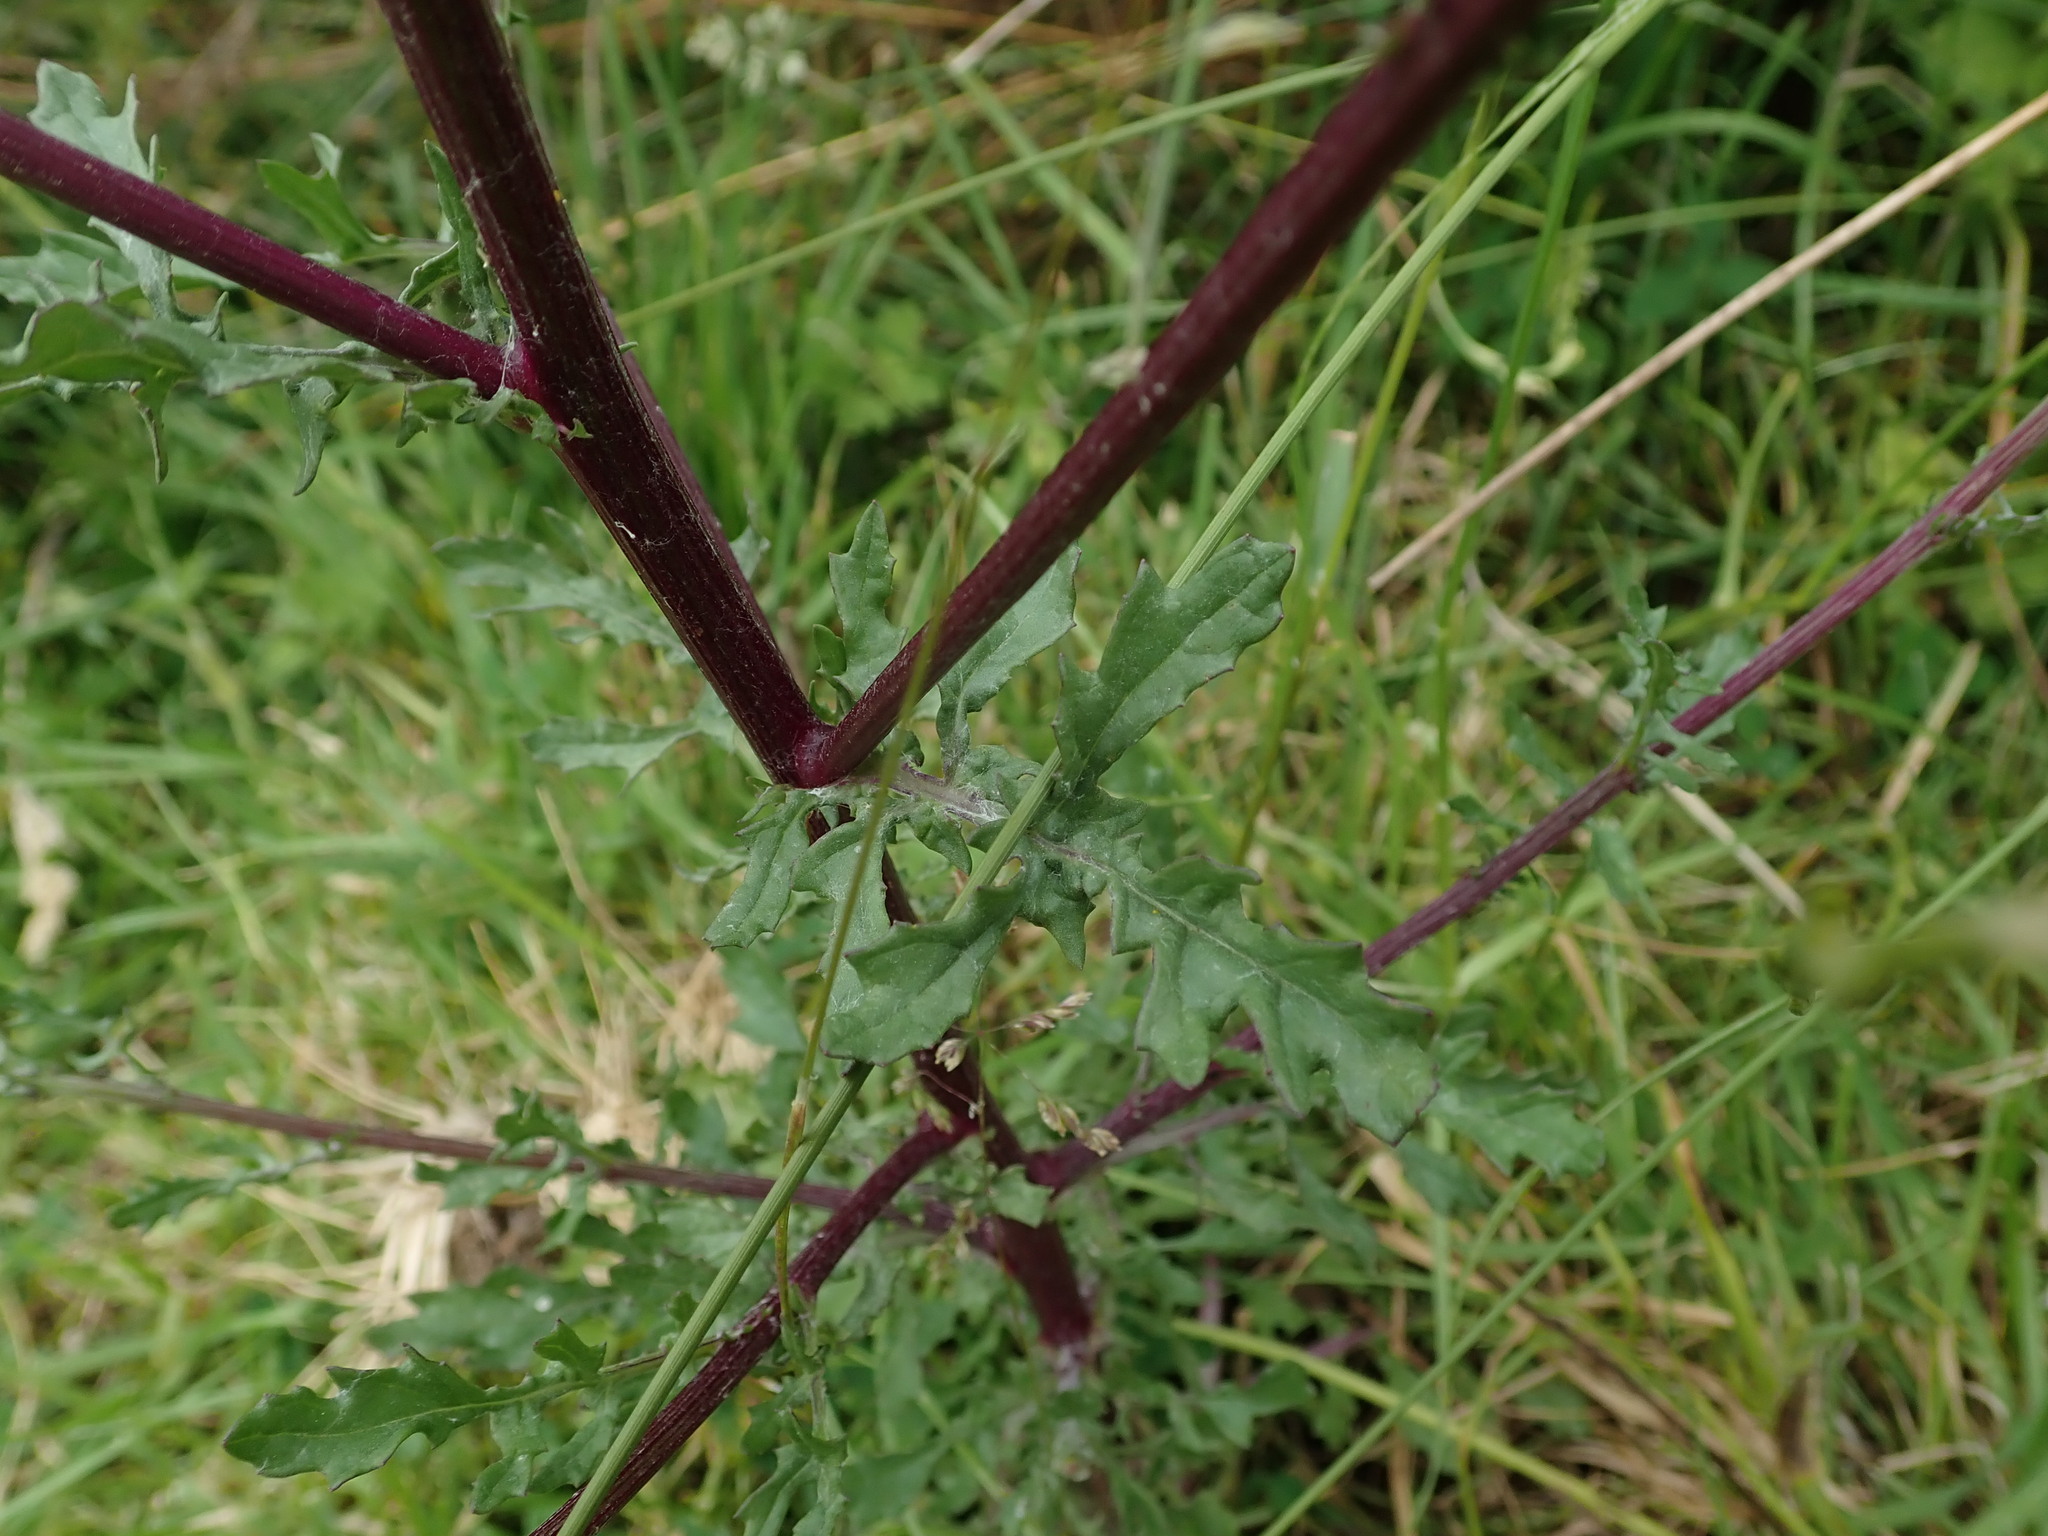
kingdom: Plantae
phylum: Tracheophyta
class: Magnoliopsida
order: Asterales
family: Asteraceae
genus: Jacobaea
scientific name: Jacobaea aquatica
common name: Water ragwort
